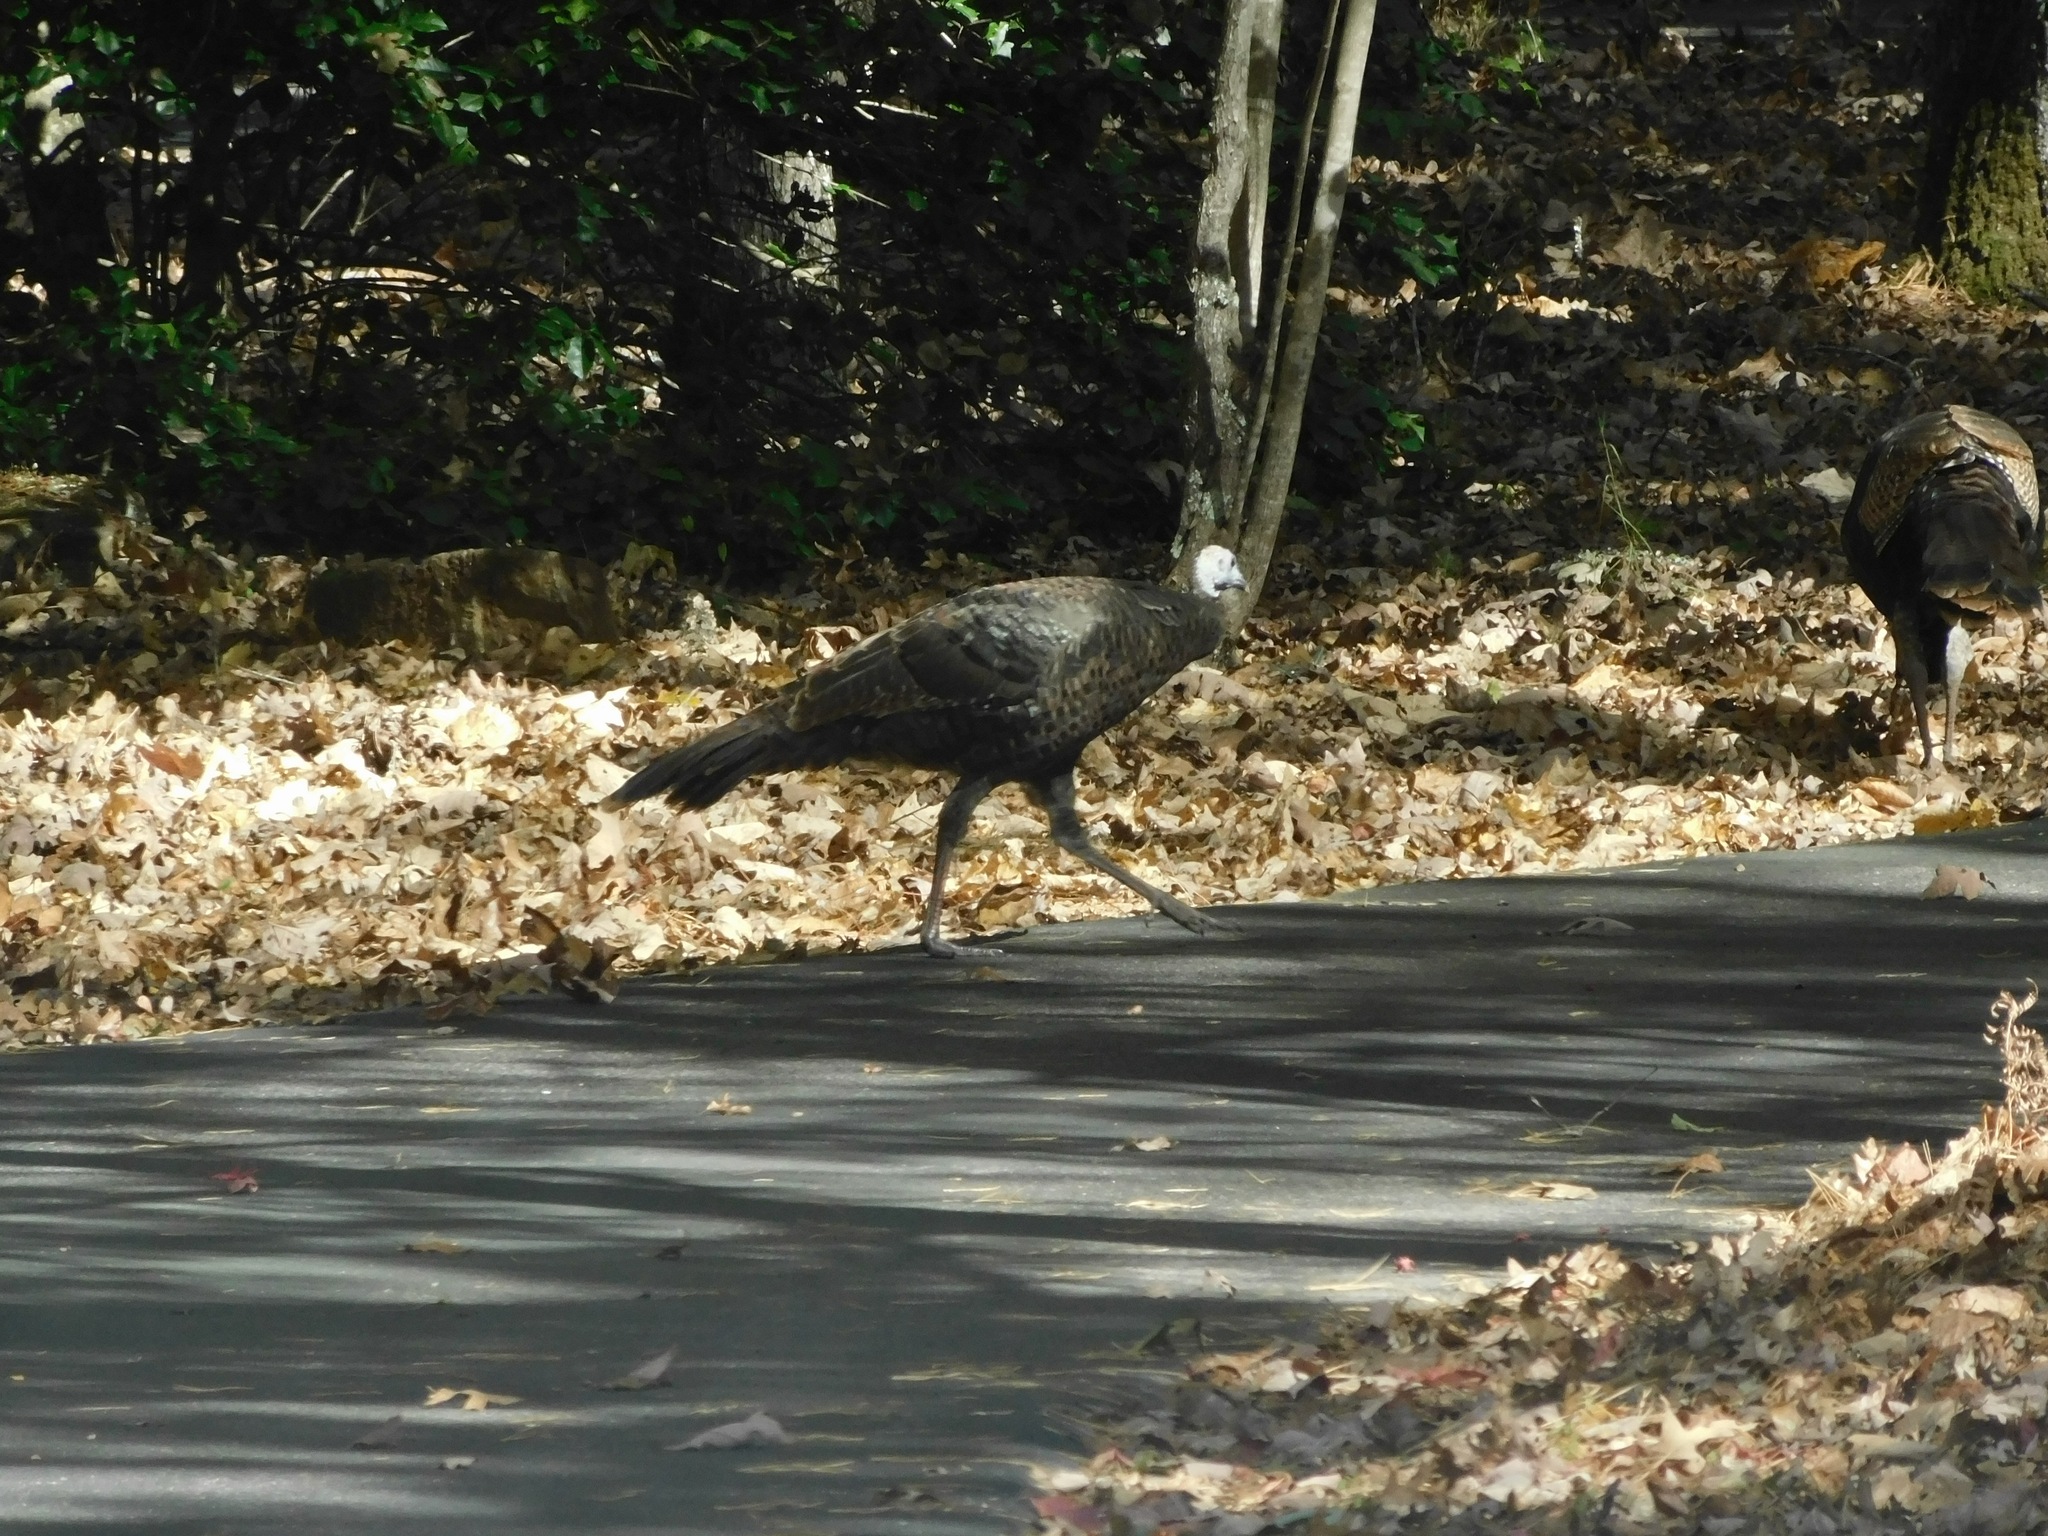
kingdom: Animalia
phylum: Chordata
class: Aves
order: Galliformes
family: Phasianidae
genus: Meleagris
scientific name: Meleagris gallopavo
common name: Wild turkey
